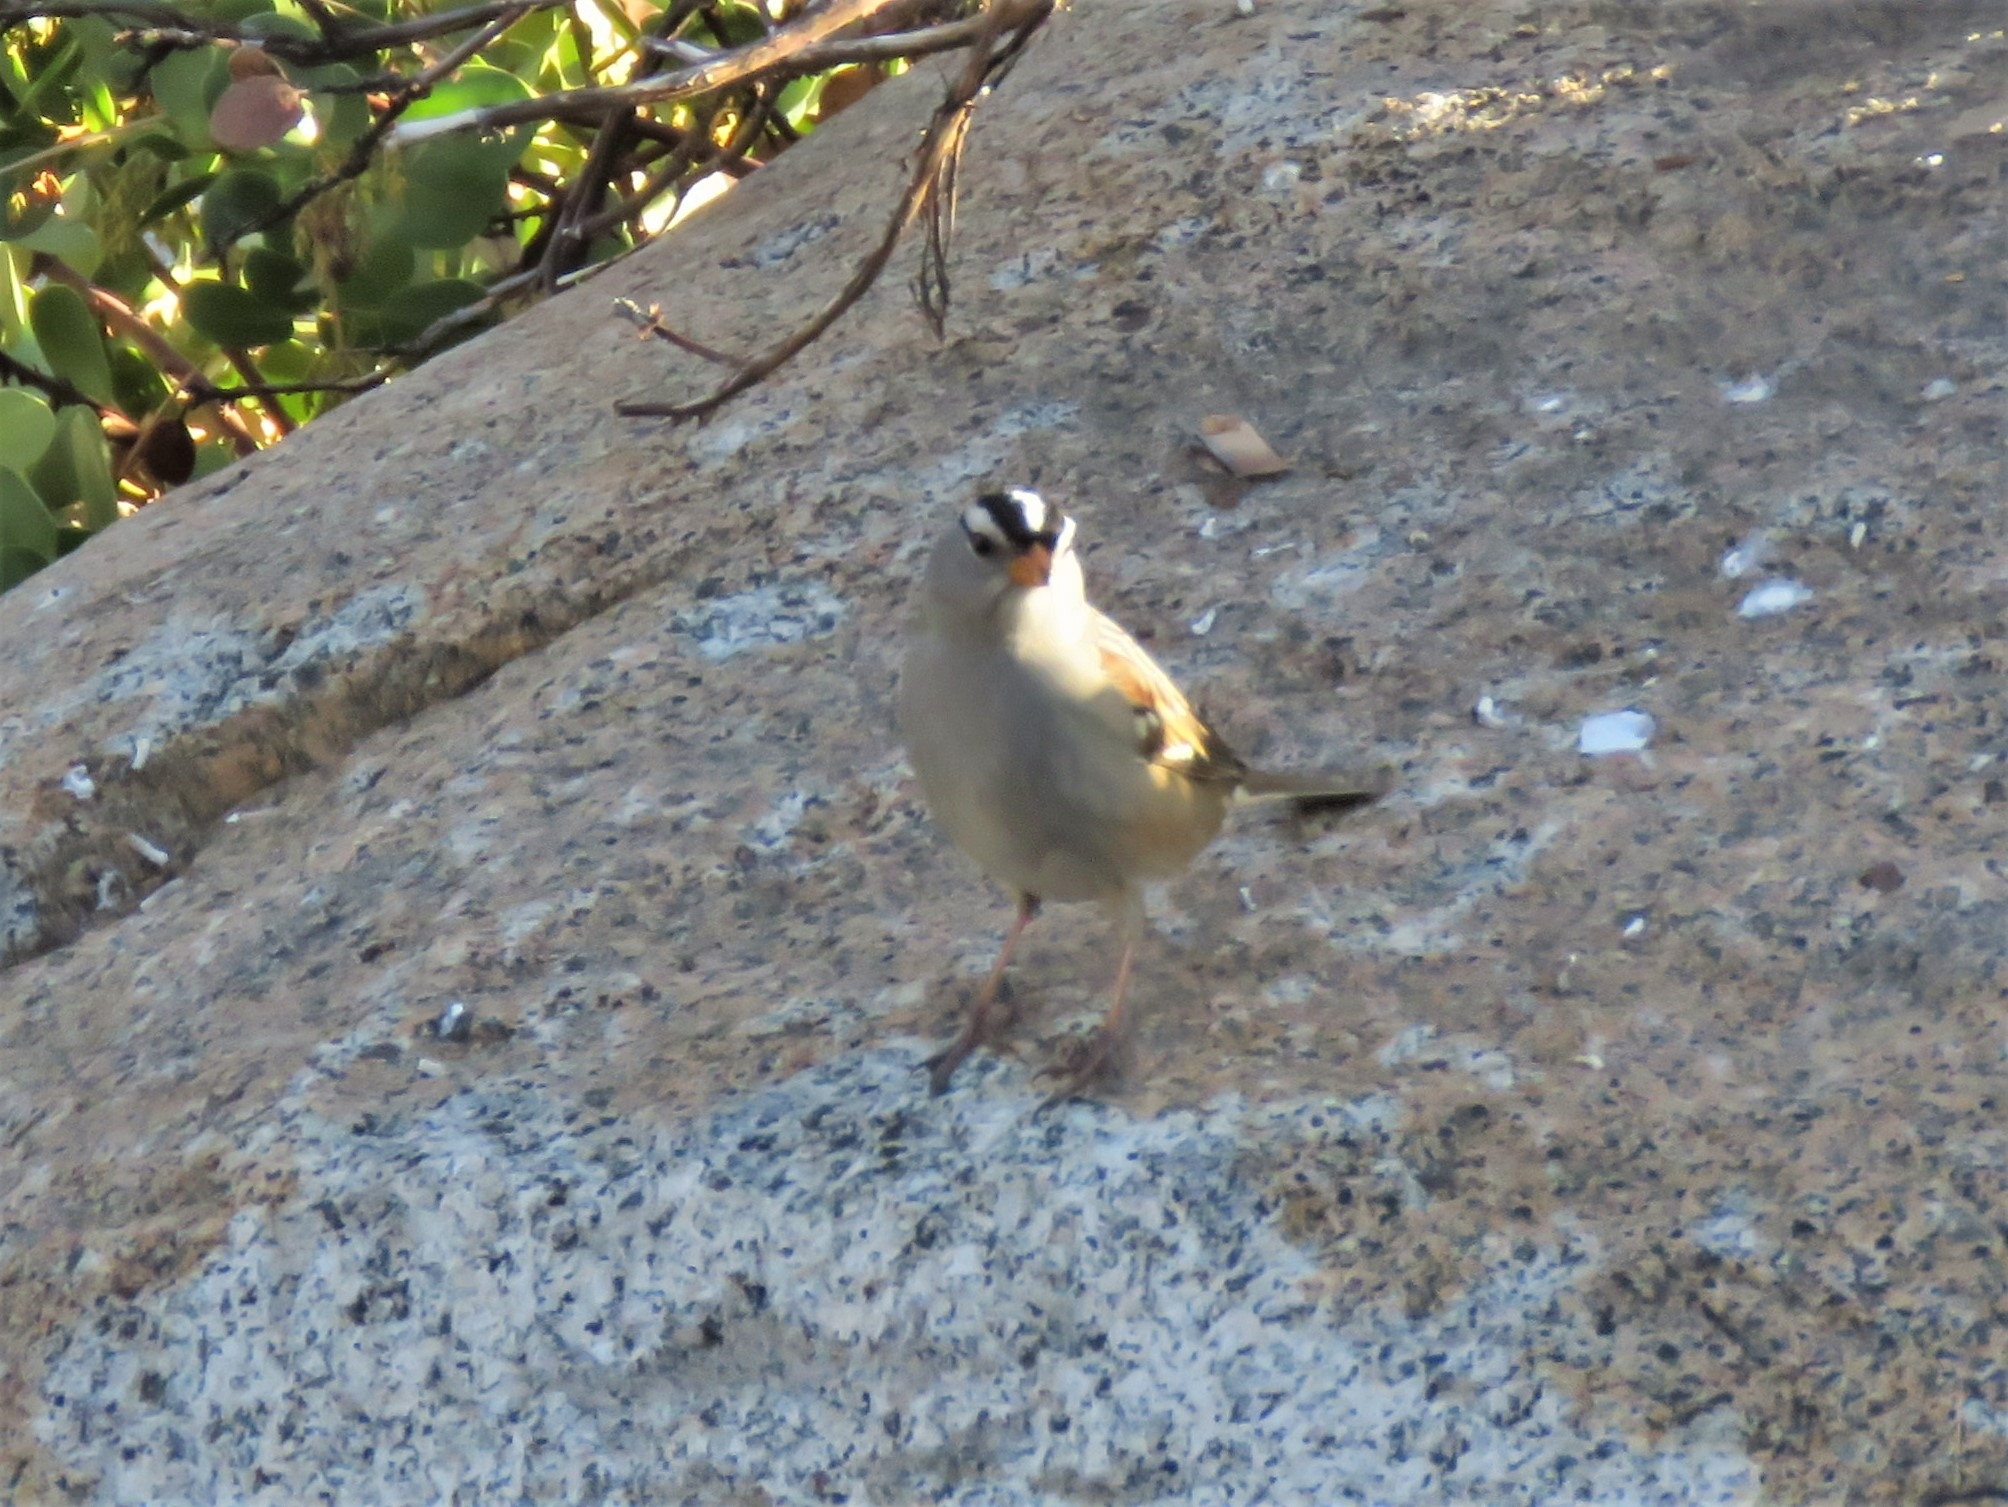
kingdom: Animalia
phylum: Chordata
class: Aves
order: Passeriformes
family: Passerellidae
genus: Zonotrichia
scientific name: Zonotrichia leucophrys
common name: White-crowned sparrow
